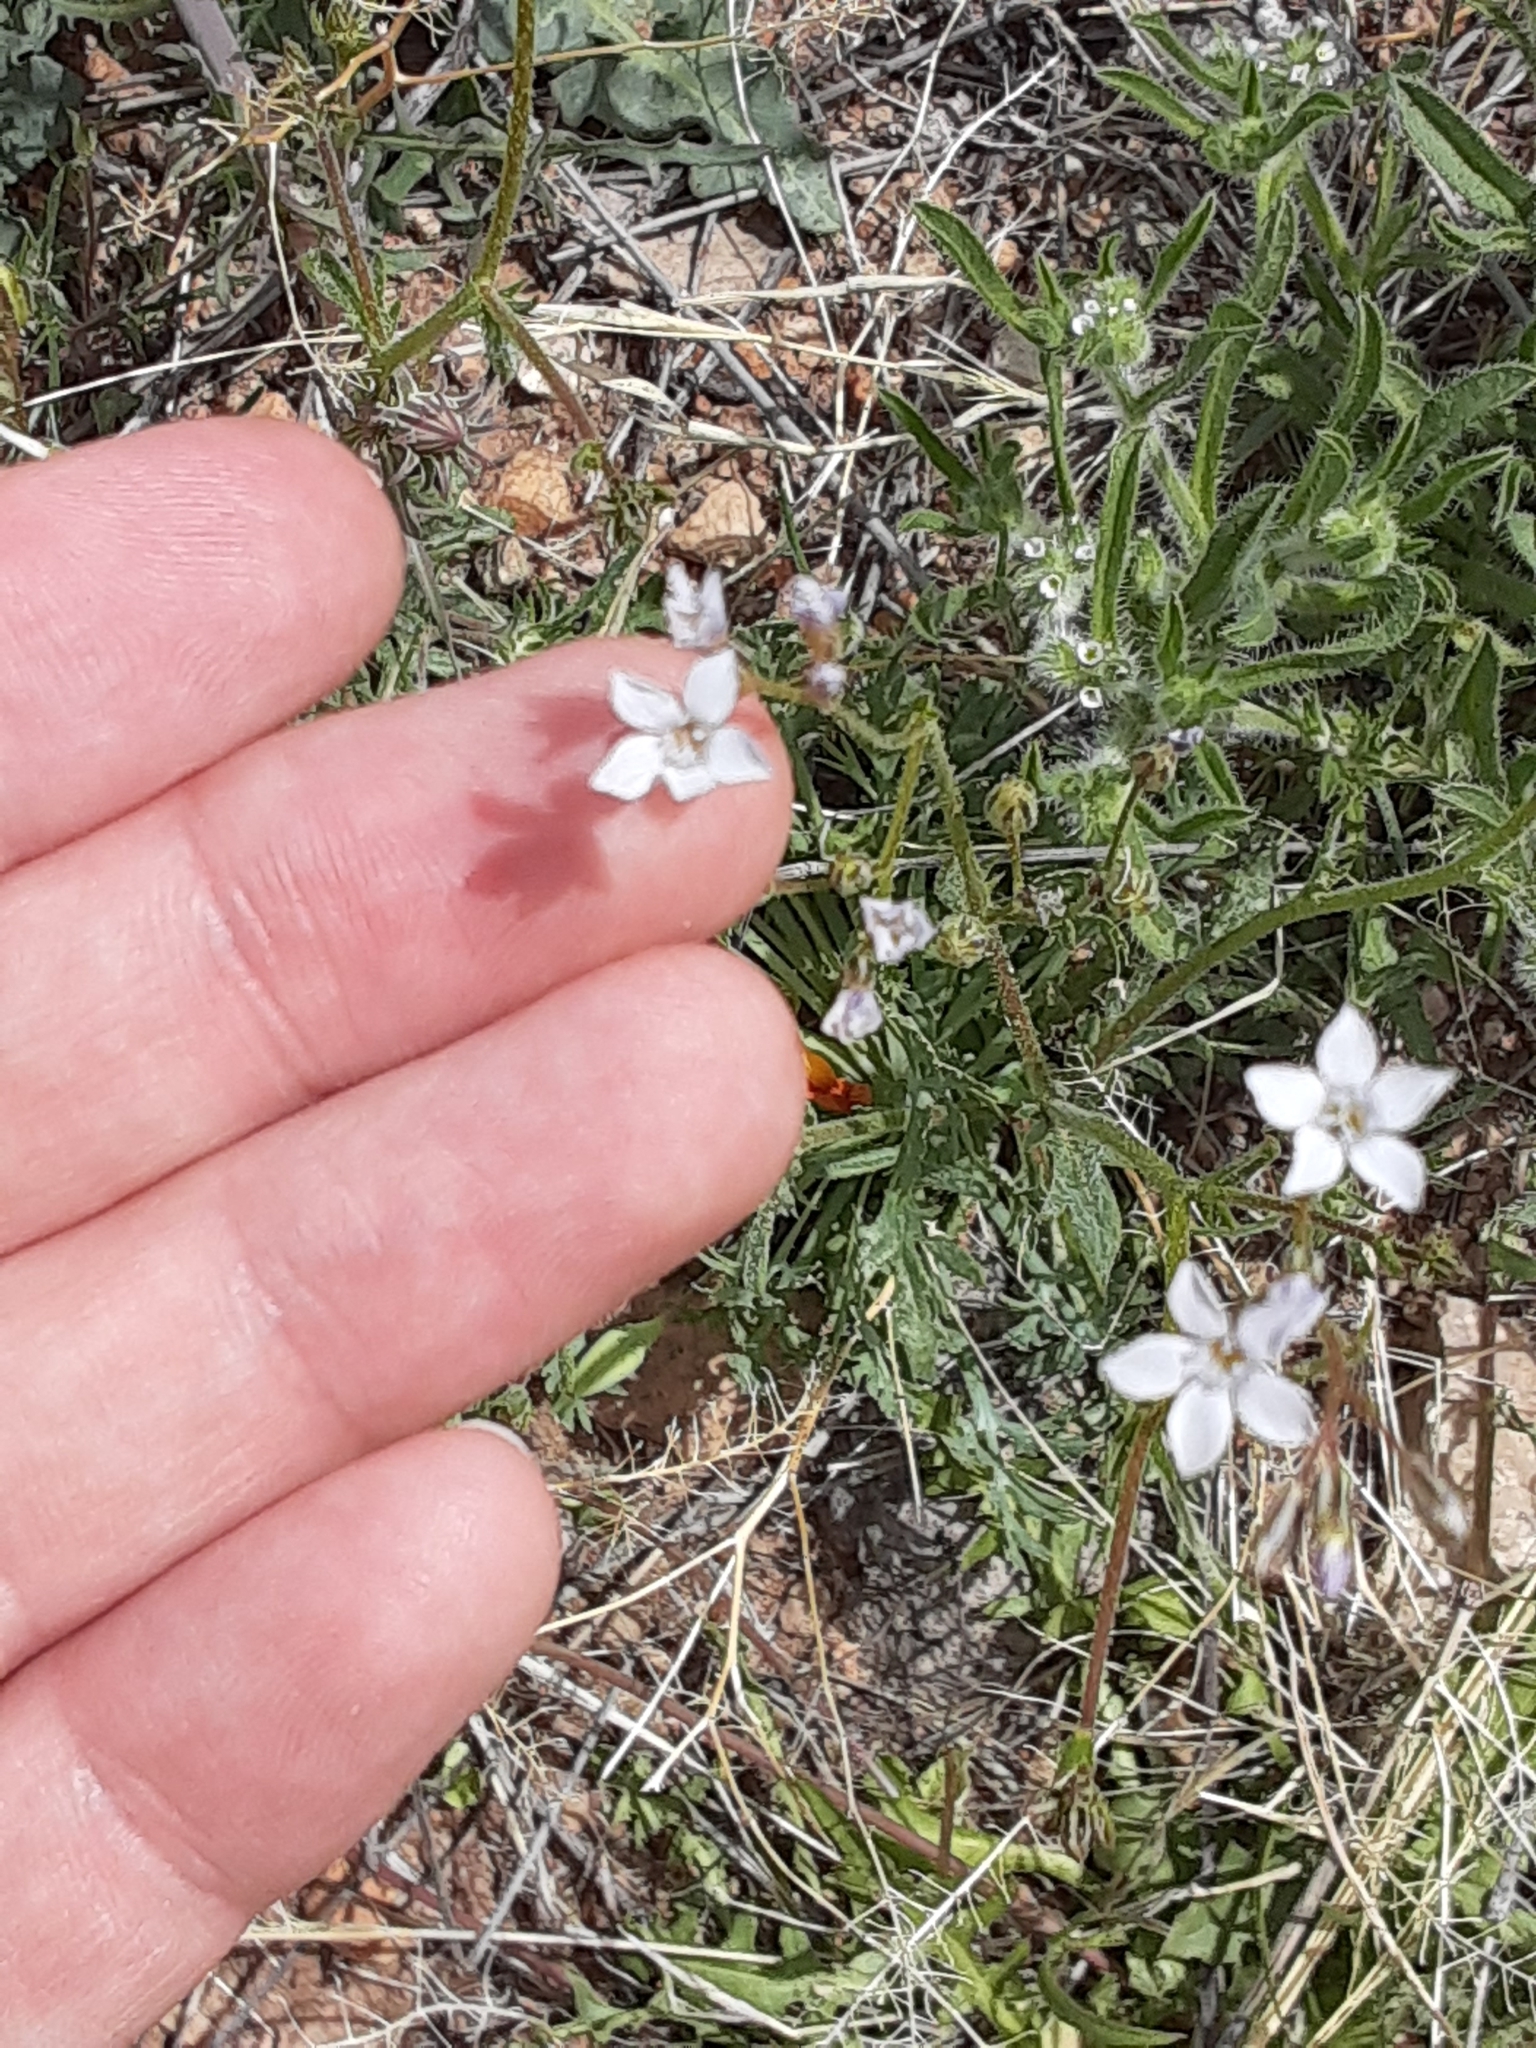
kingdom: Plantae
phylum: Tracheophyta
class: Magnoliopsida
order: Ericales
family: Polemoniaceae
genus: Gilia
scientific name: Gilia stellata
